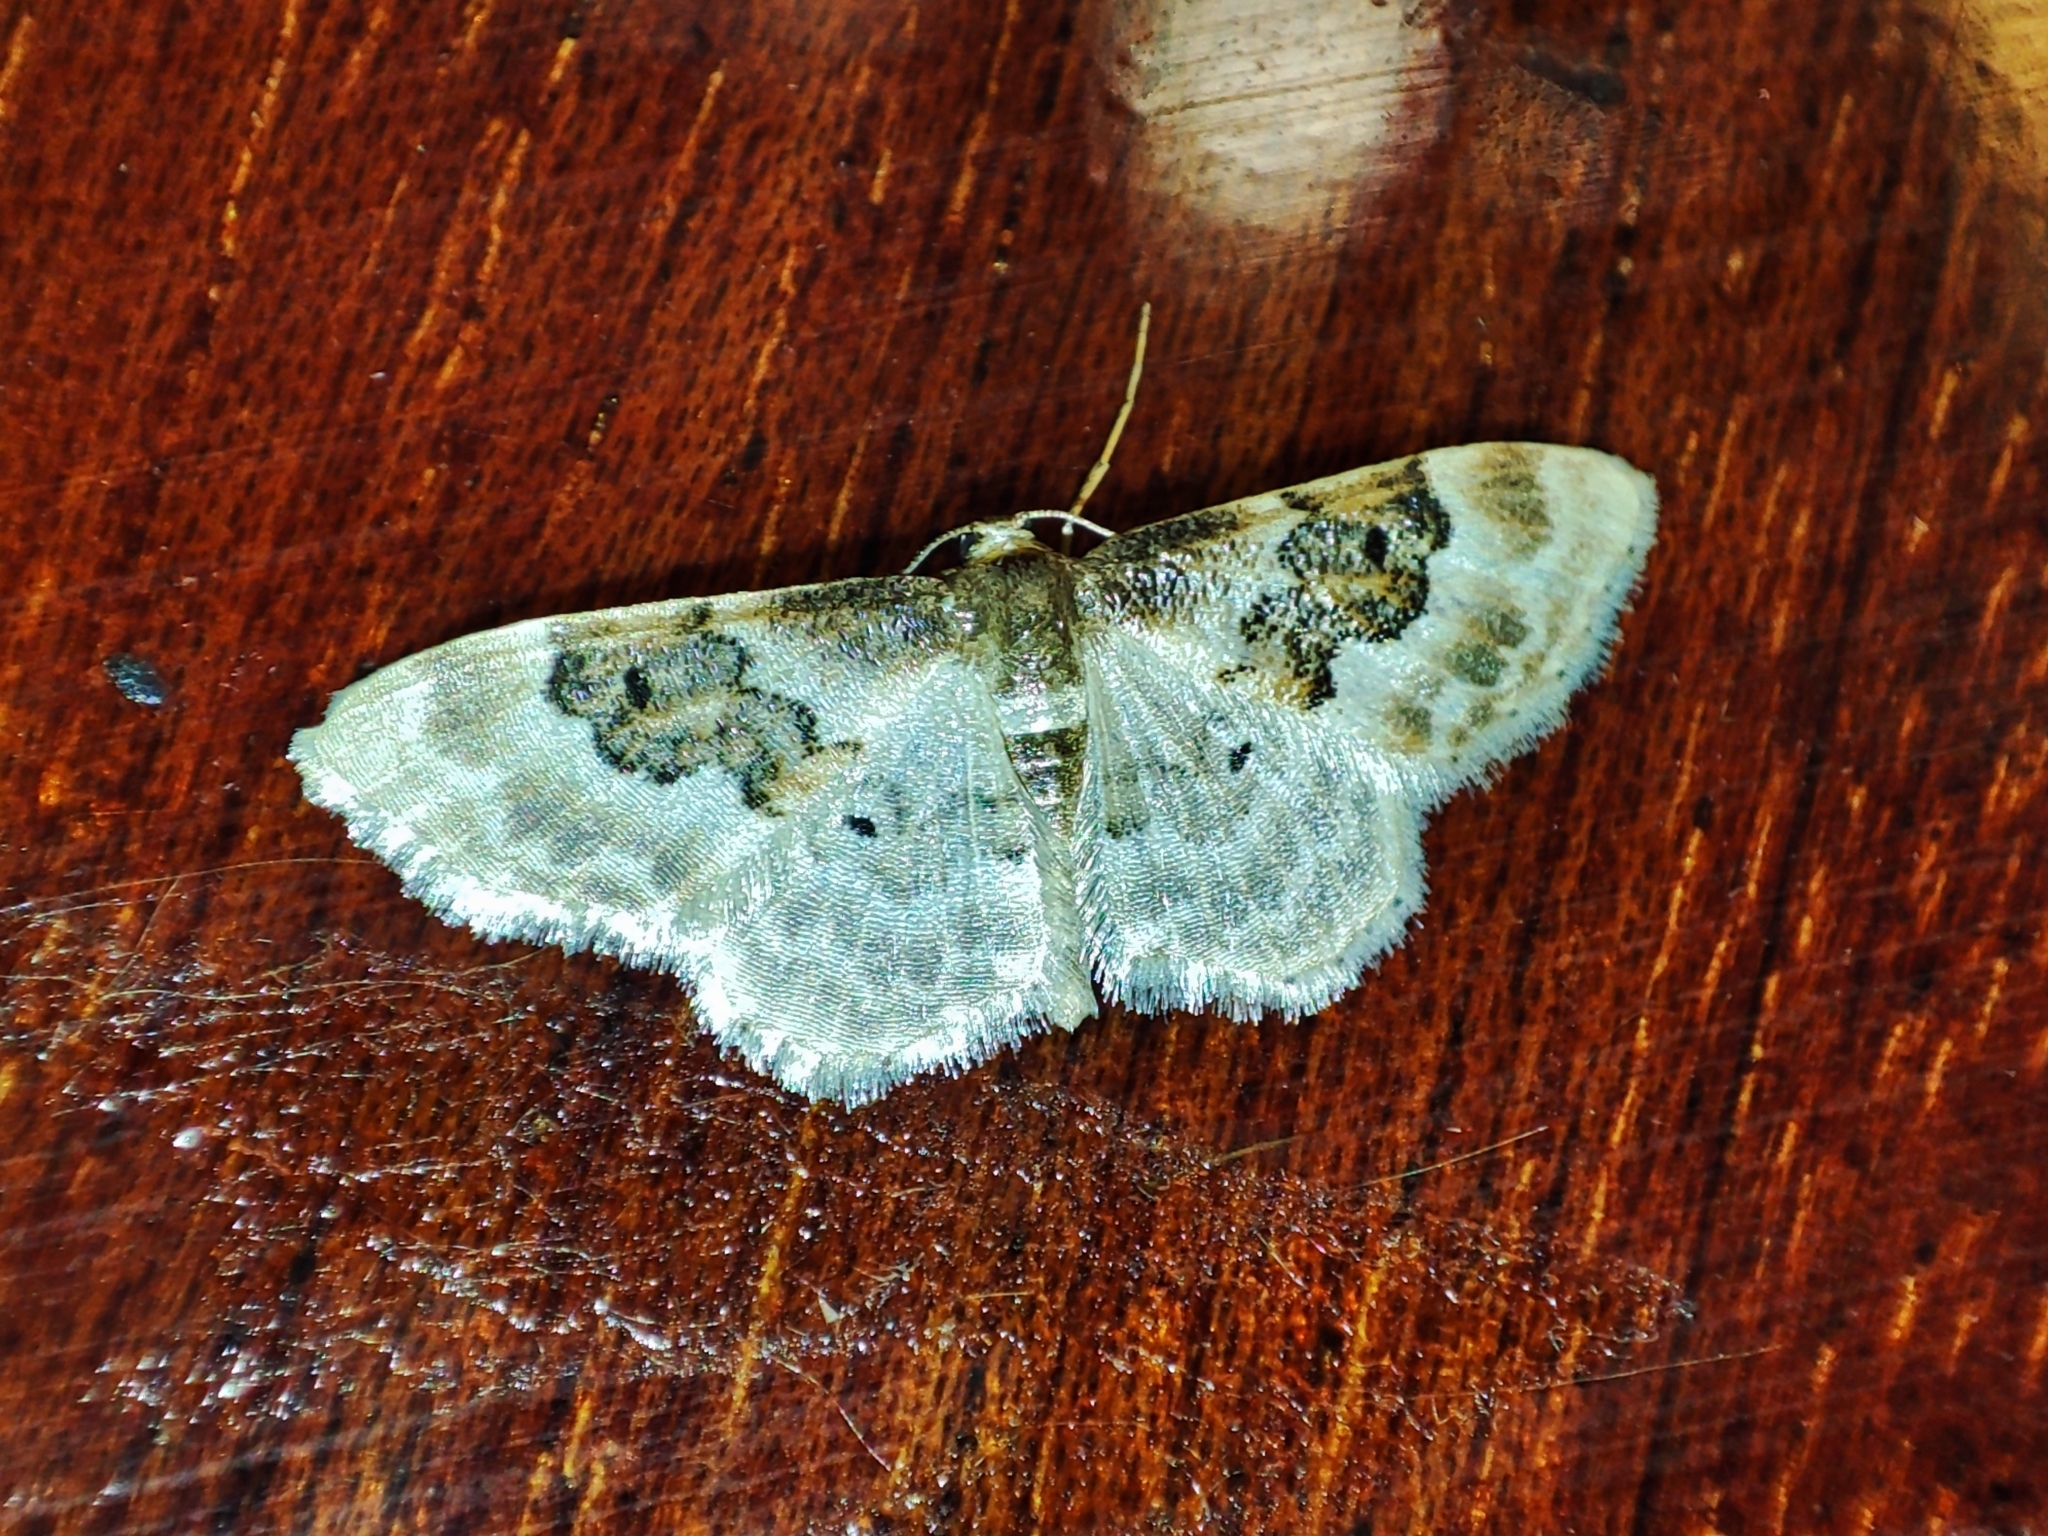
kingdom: Animalia
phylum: Arthropoda
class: Insecta
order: Lepidoptera
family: Geometridae
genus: Idaea
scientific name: Idaea rusticata
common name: Least carpet
